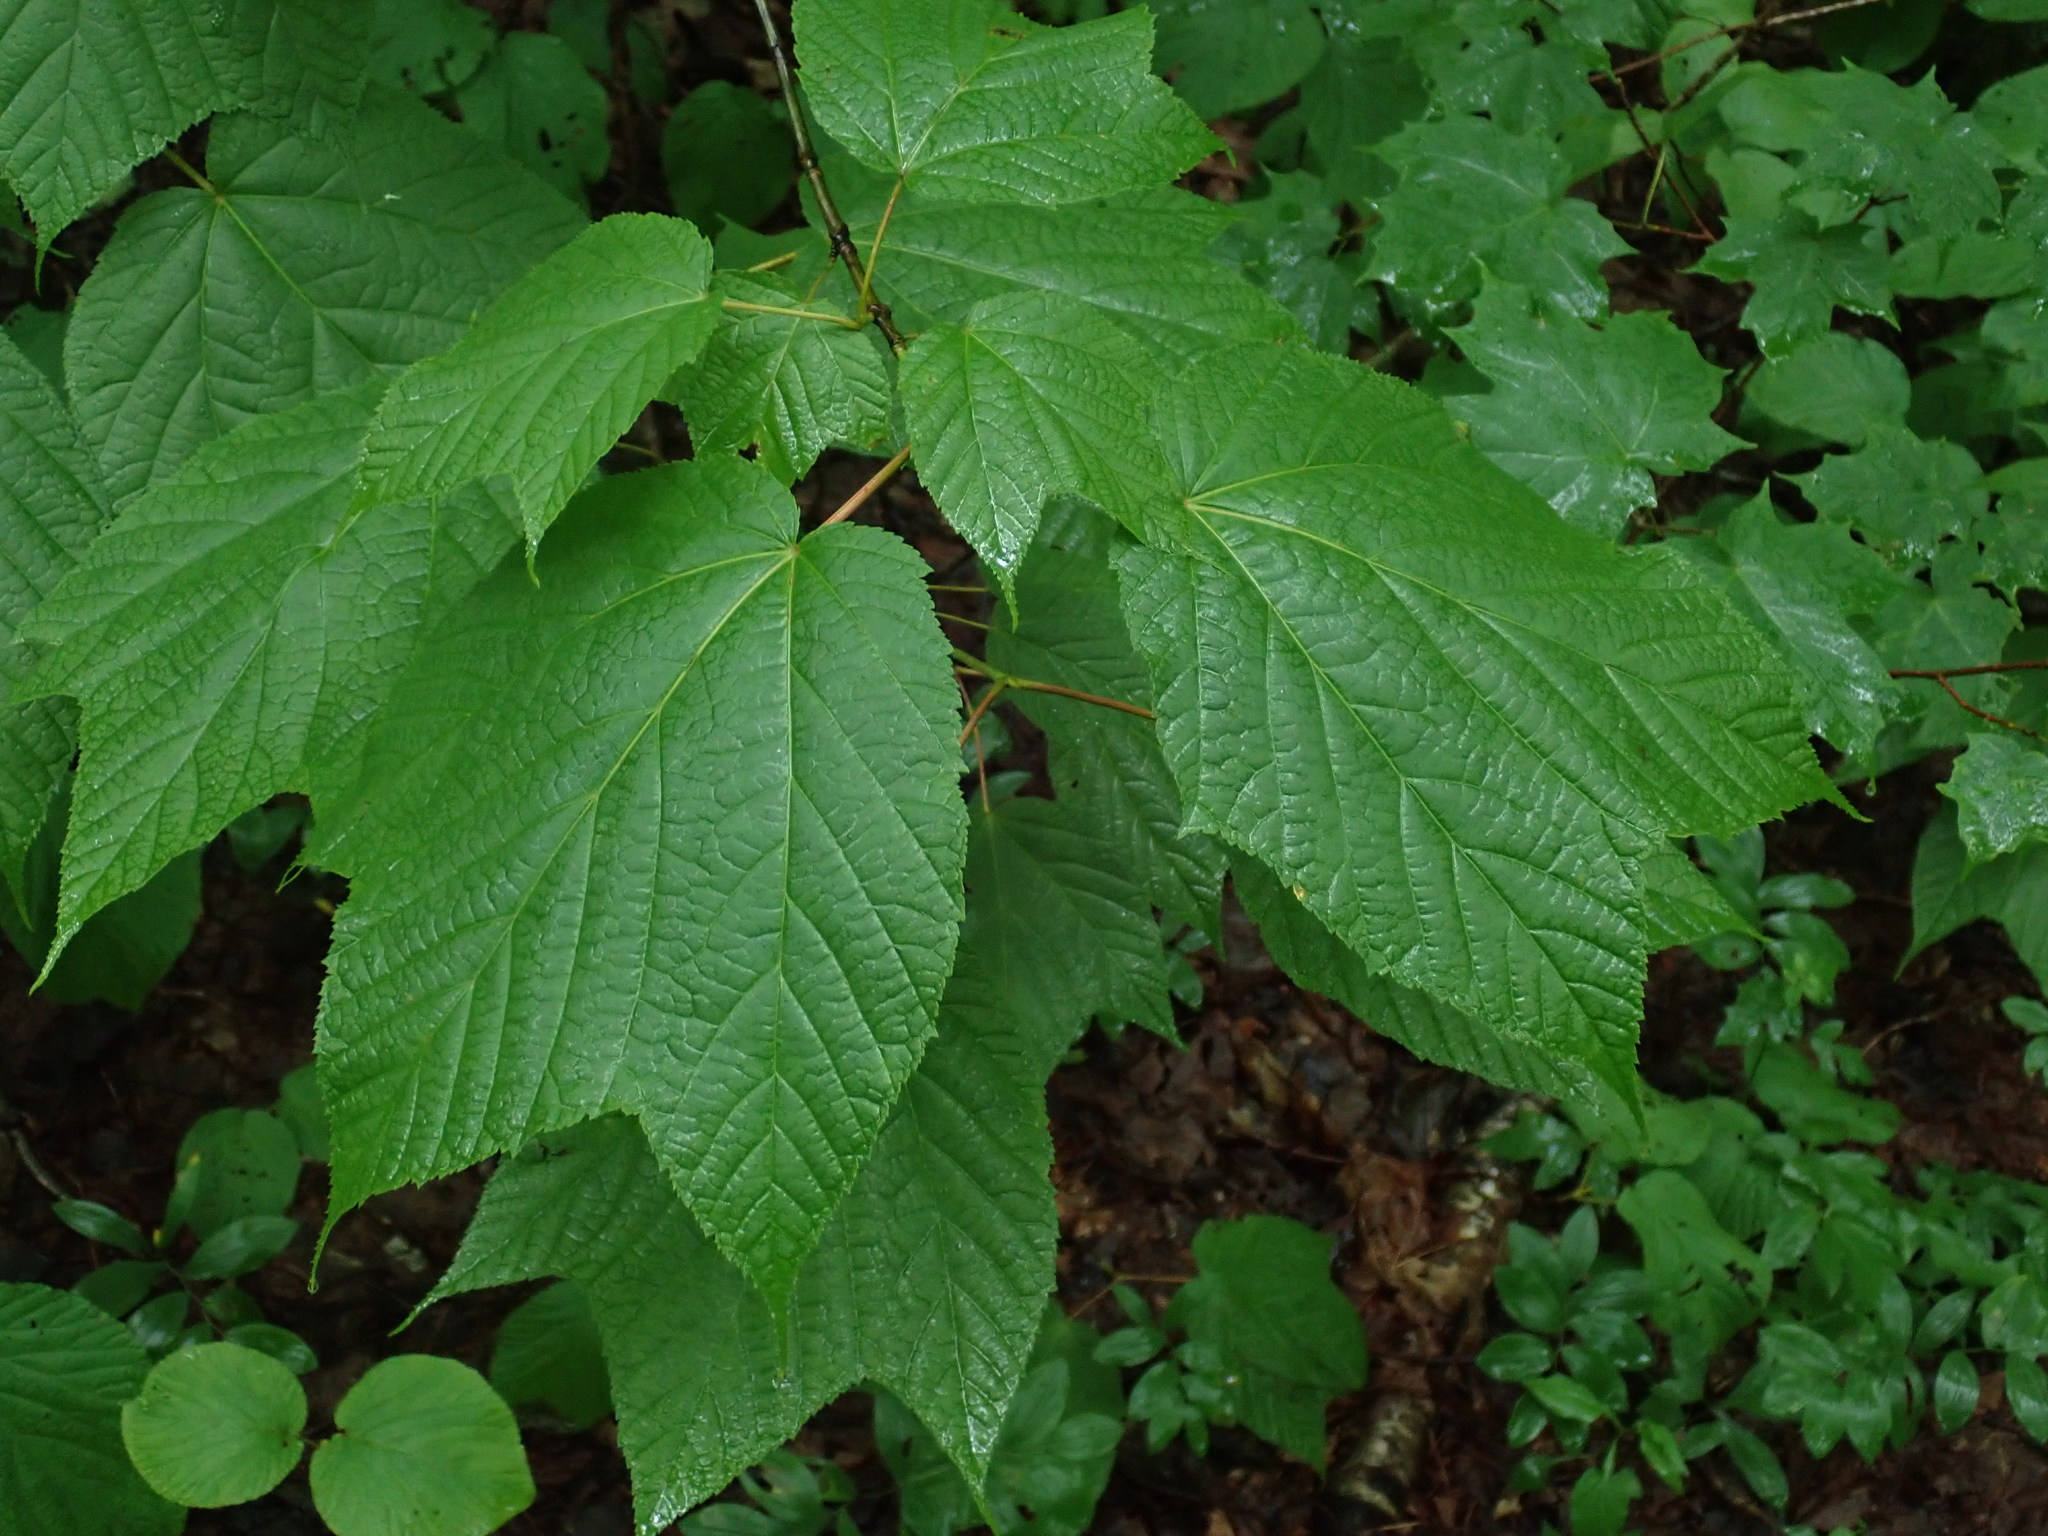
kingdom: Plantae
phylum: Tracheophyta
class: Magnoliopsida
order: Sapindales
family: Sapindaceae
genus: Acer
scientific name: Acer pensylvanicum
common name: Moosewood
